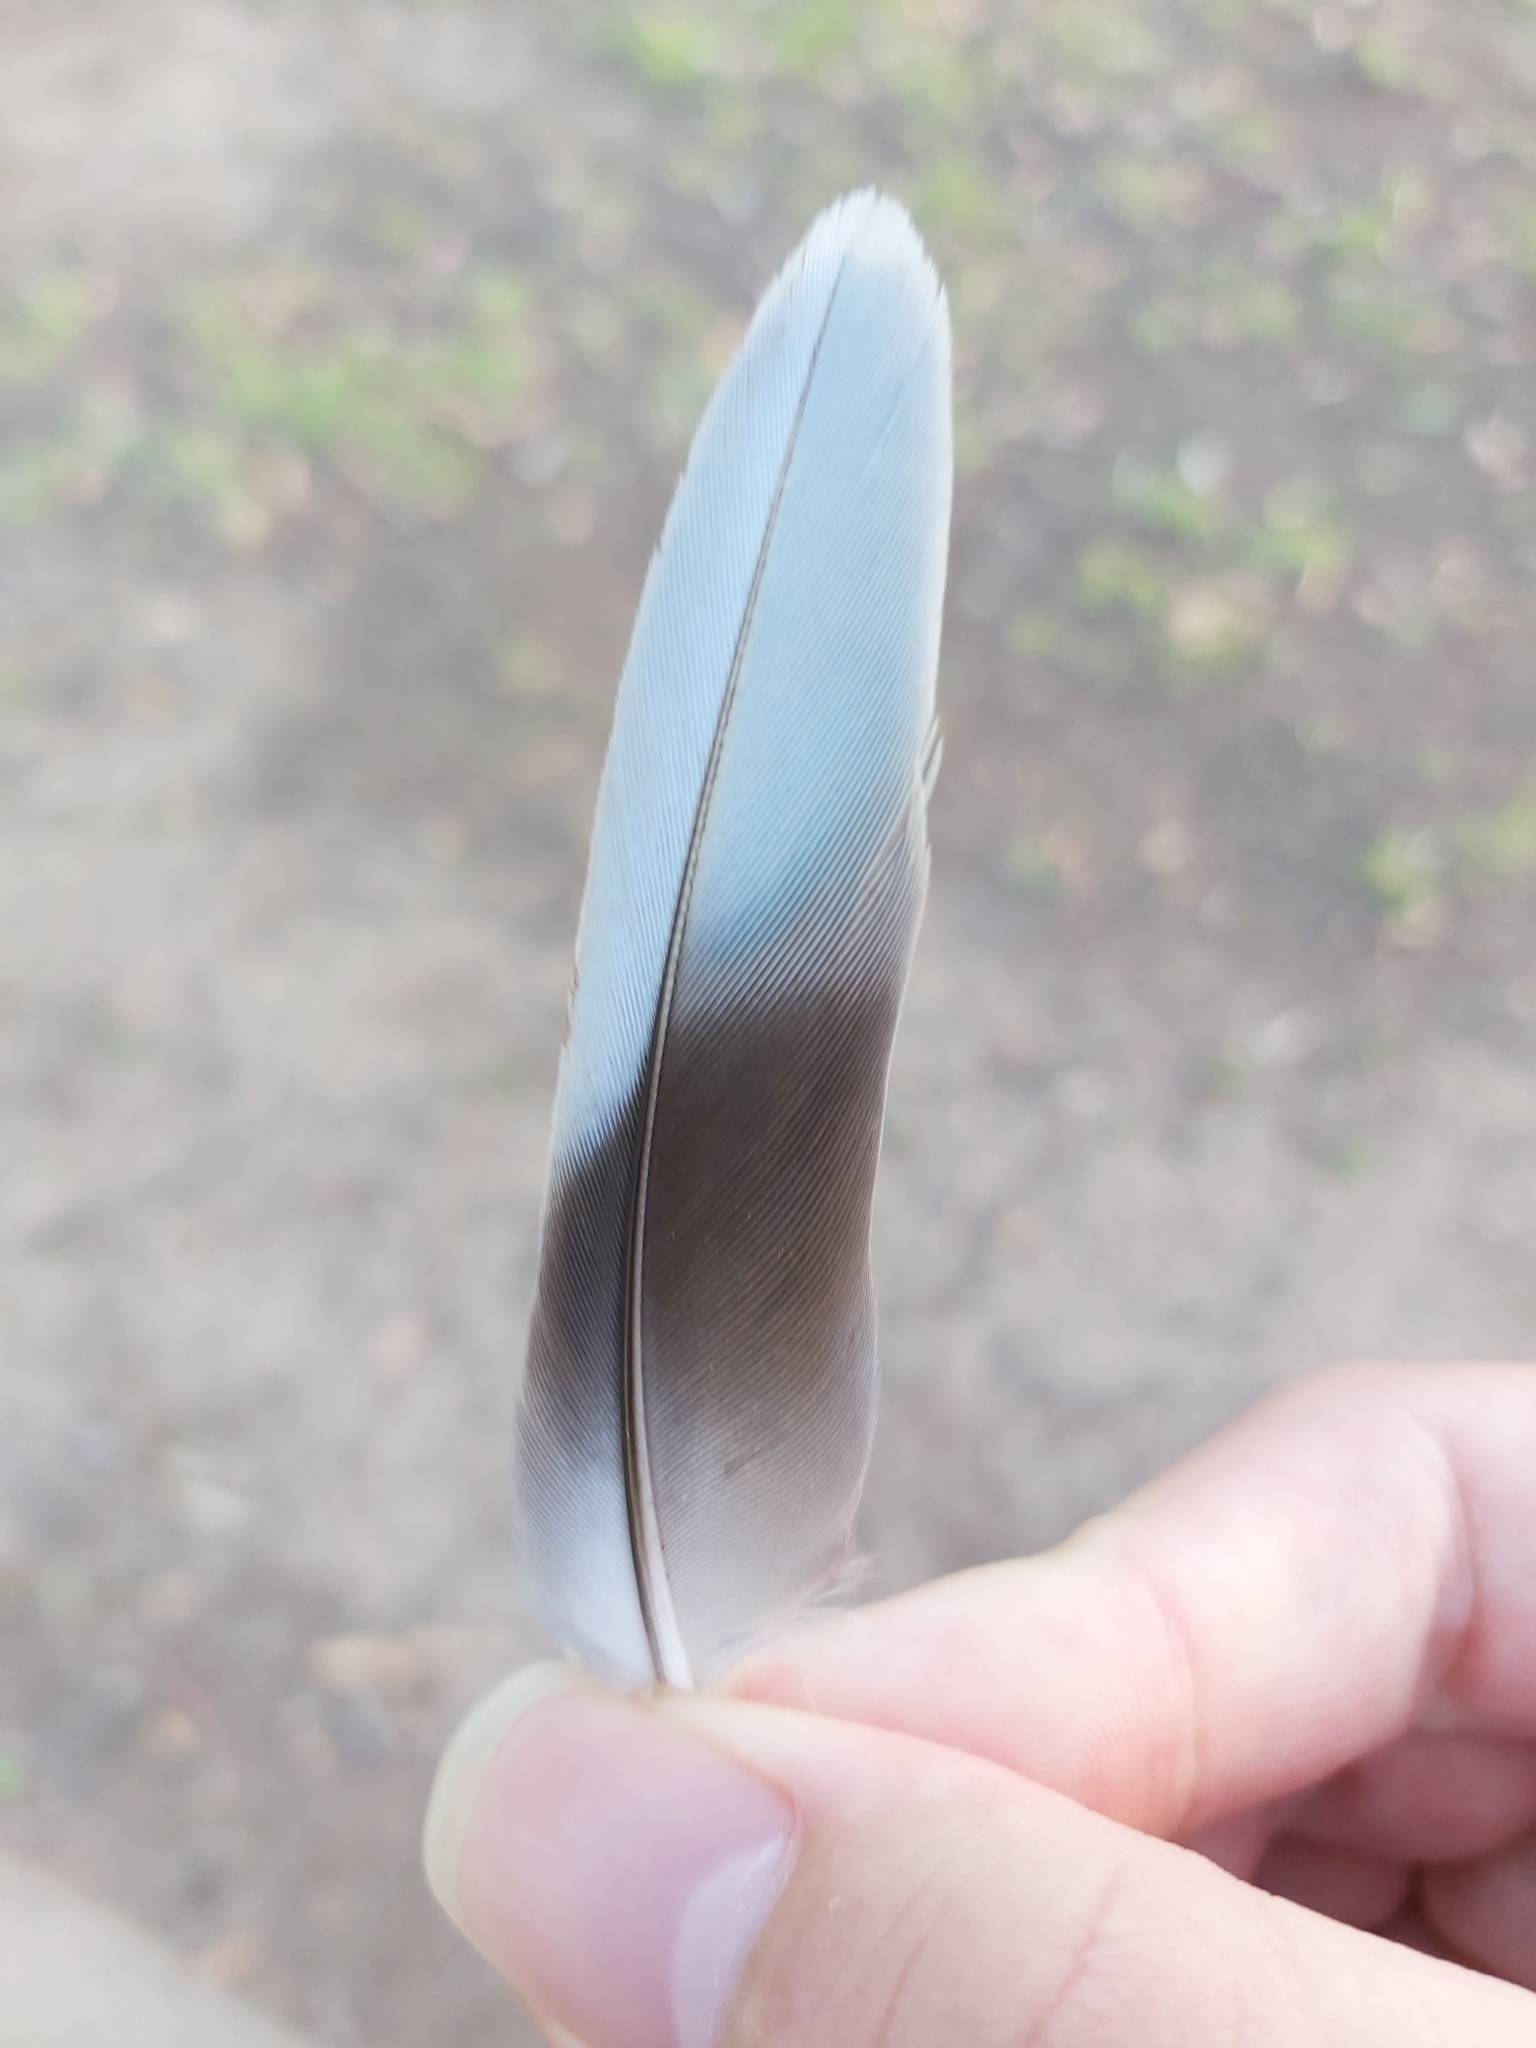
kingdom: Animalia
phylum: Chordata
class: Aves
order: Psittaciformes
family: Psittacidae
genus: Platycercus
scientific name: Platycercus eximius
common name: Eastern rosella
